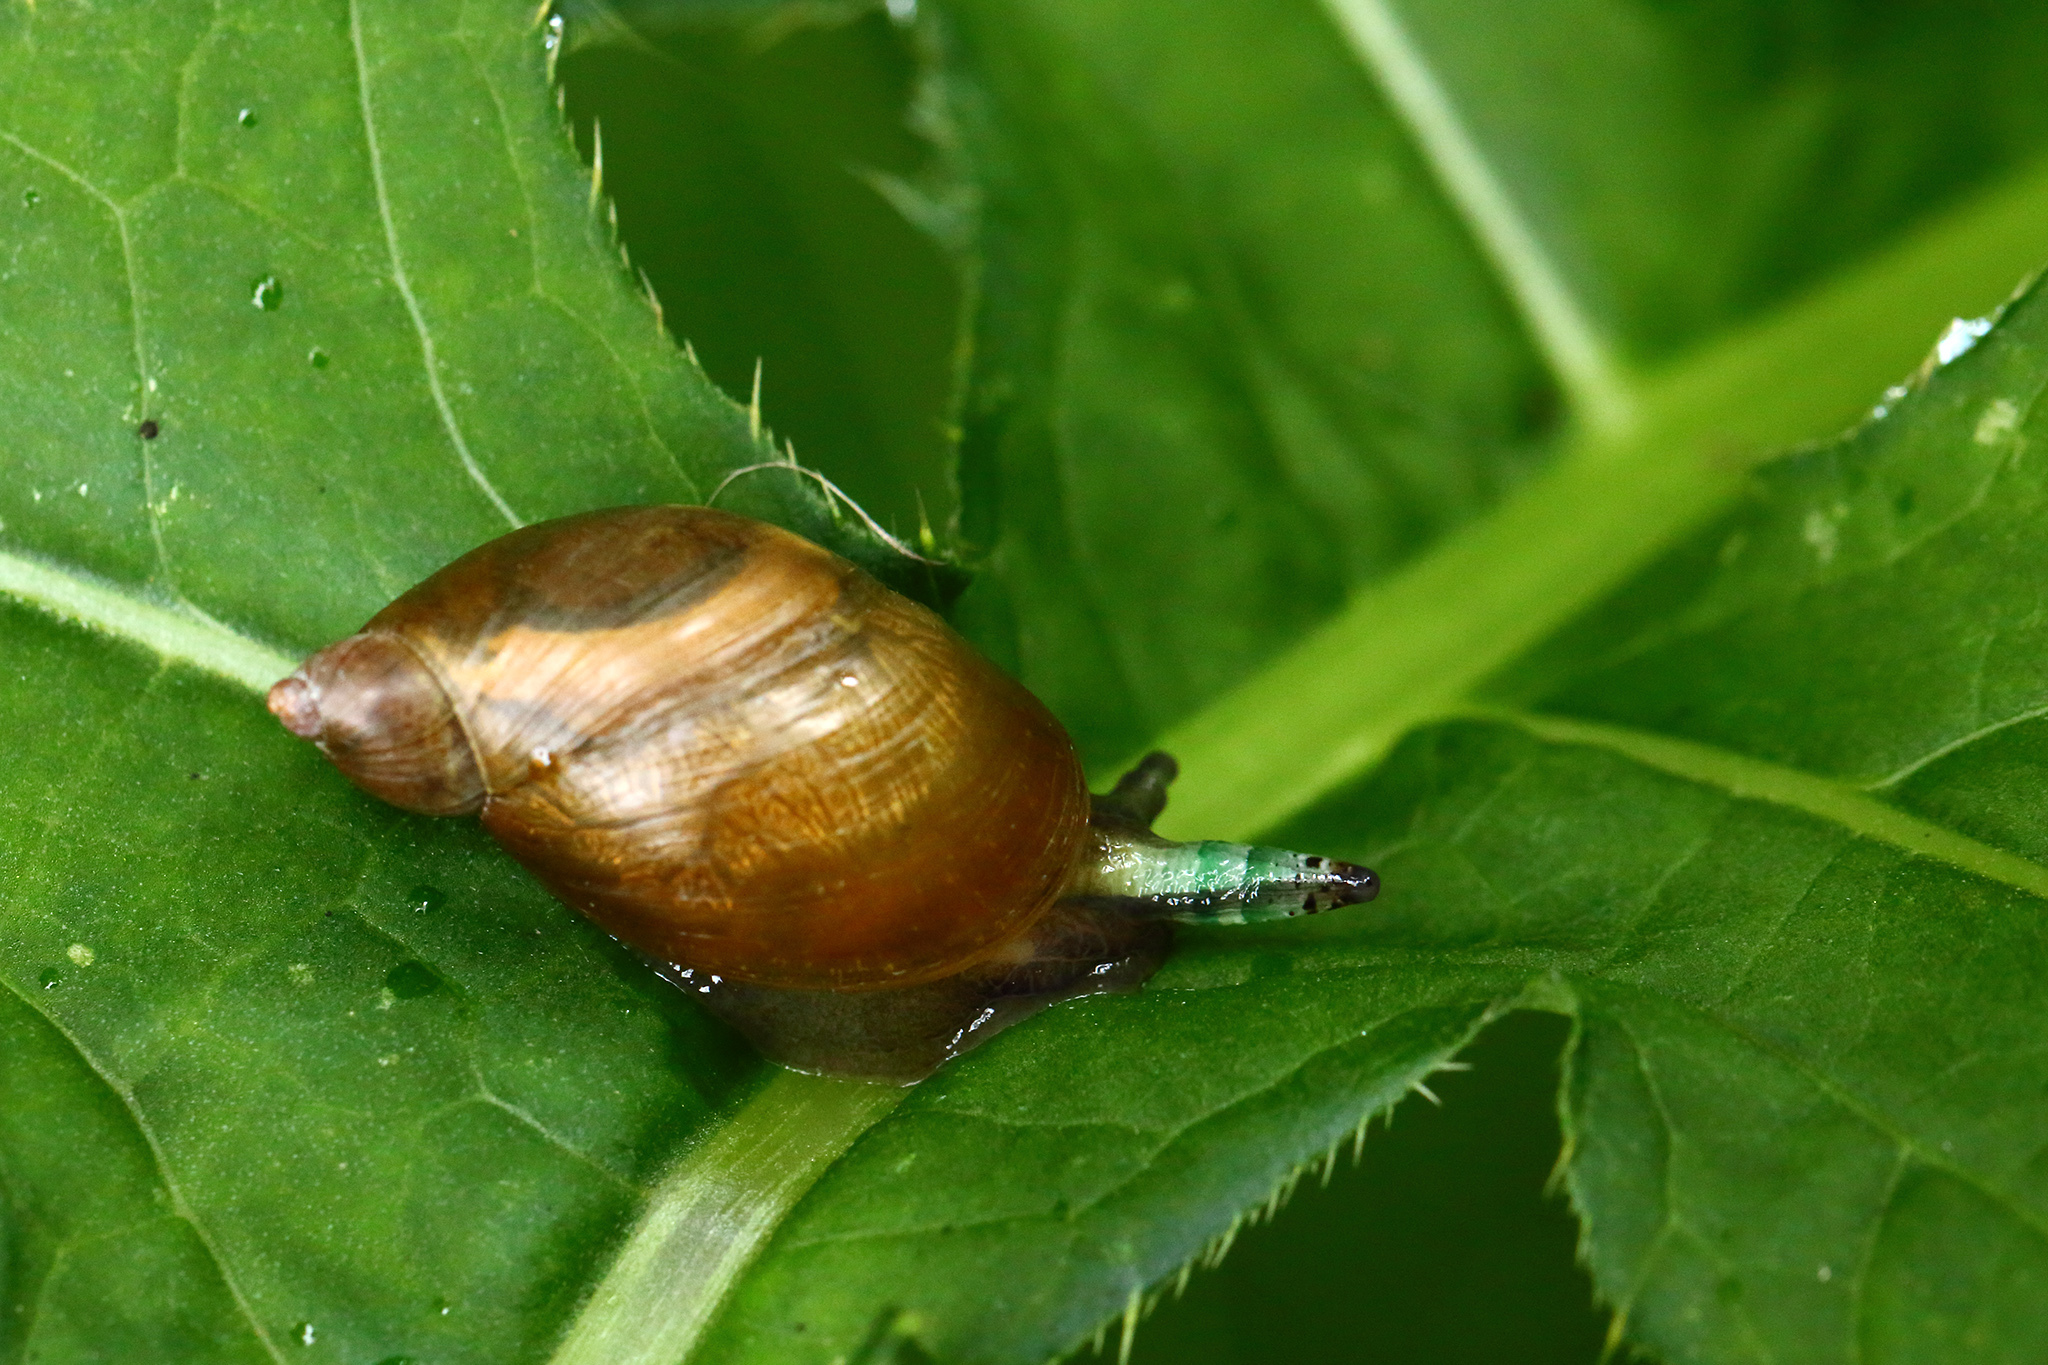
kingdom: Animalia
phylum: Mollusca
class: Gastropoda
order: Stylommatophora
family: Succineidae
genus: Succinea
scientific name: Succinea putris
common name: European ambersnail
